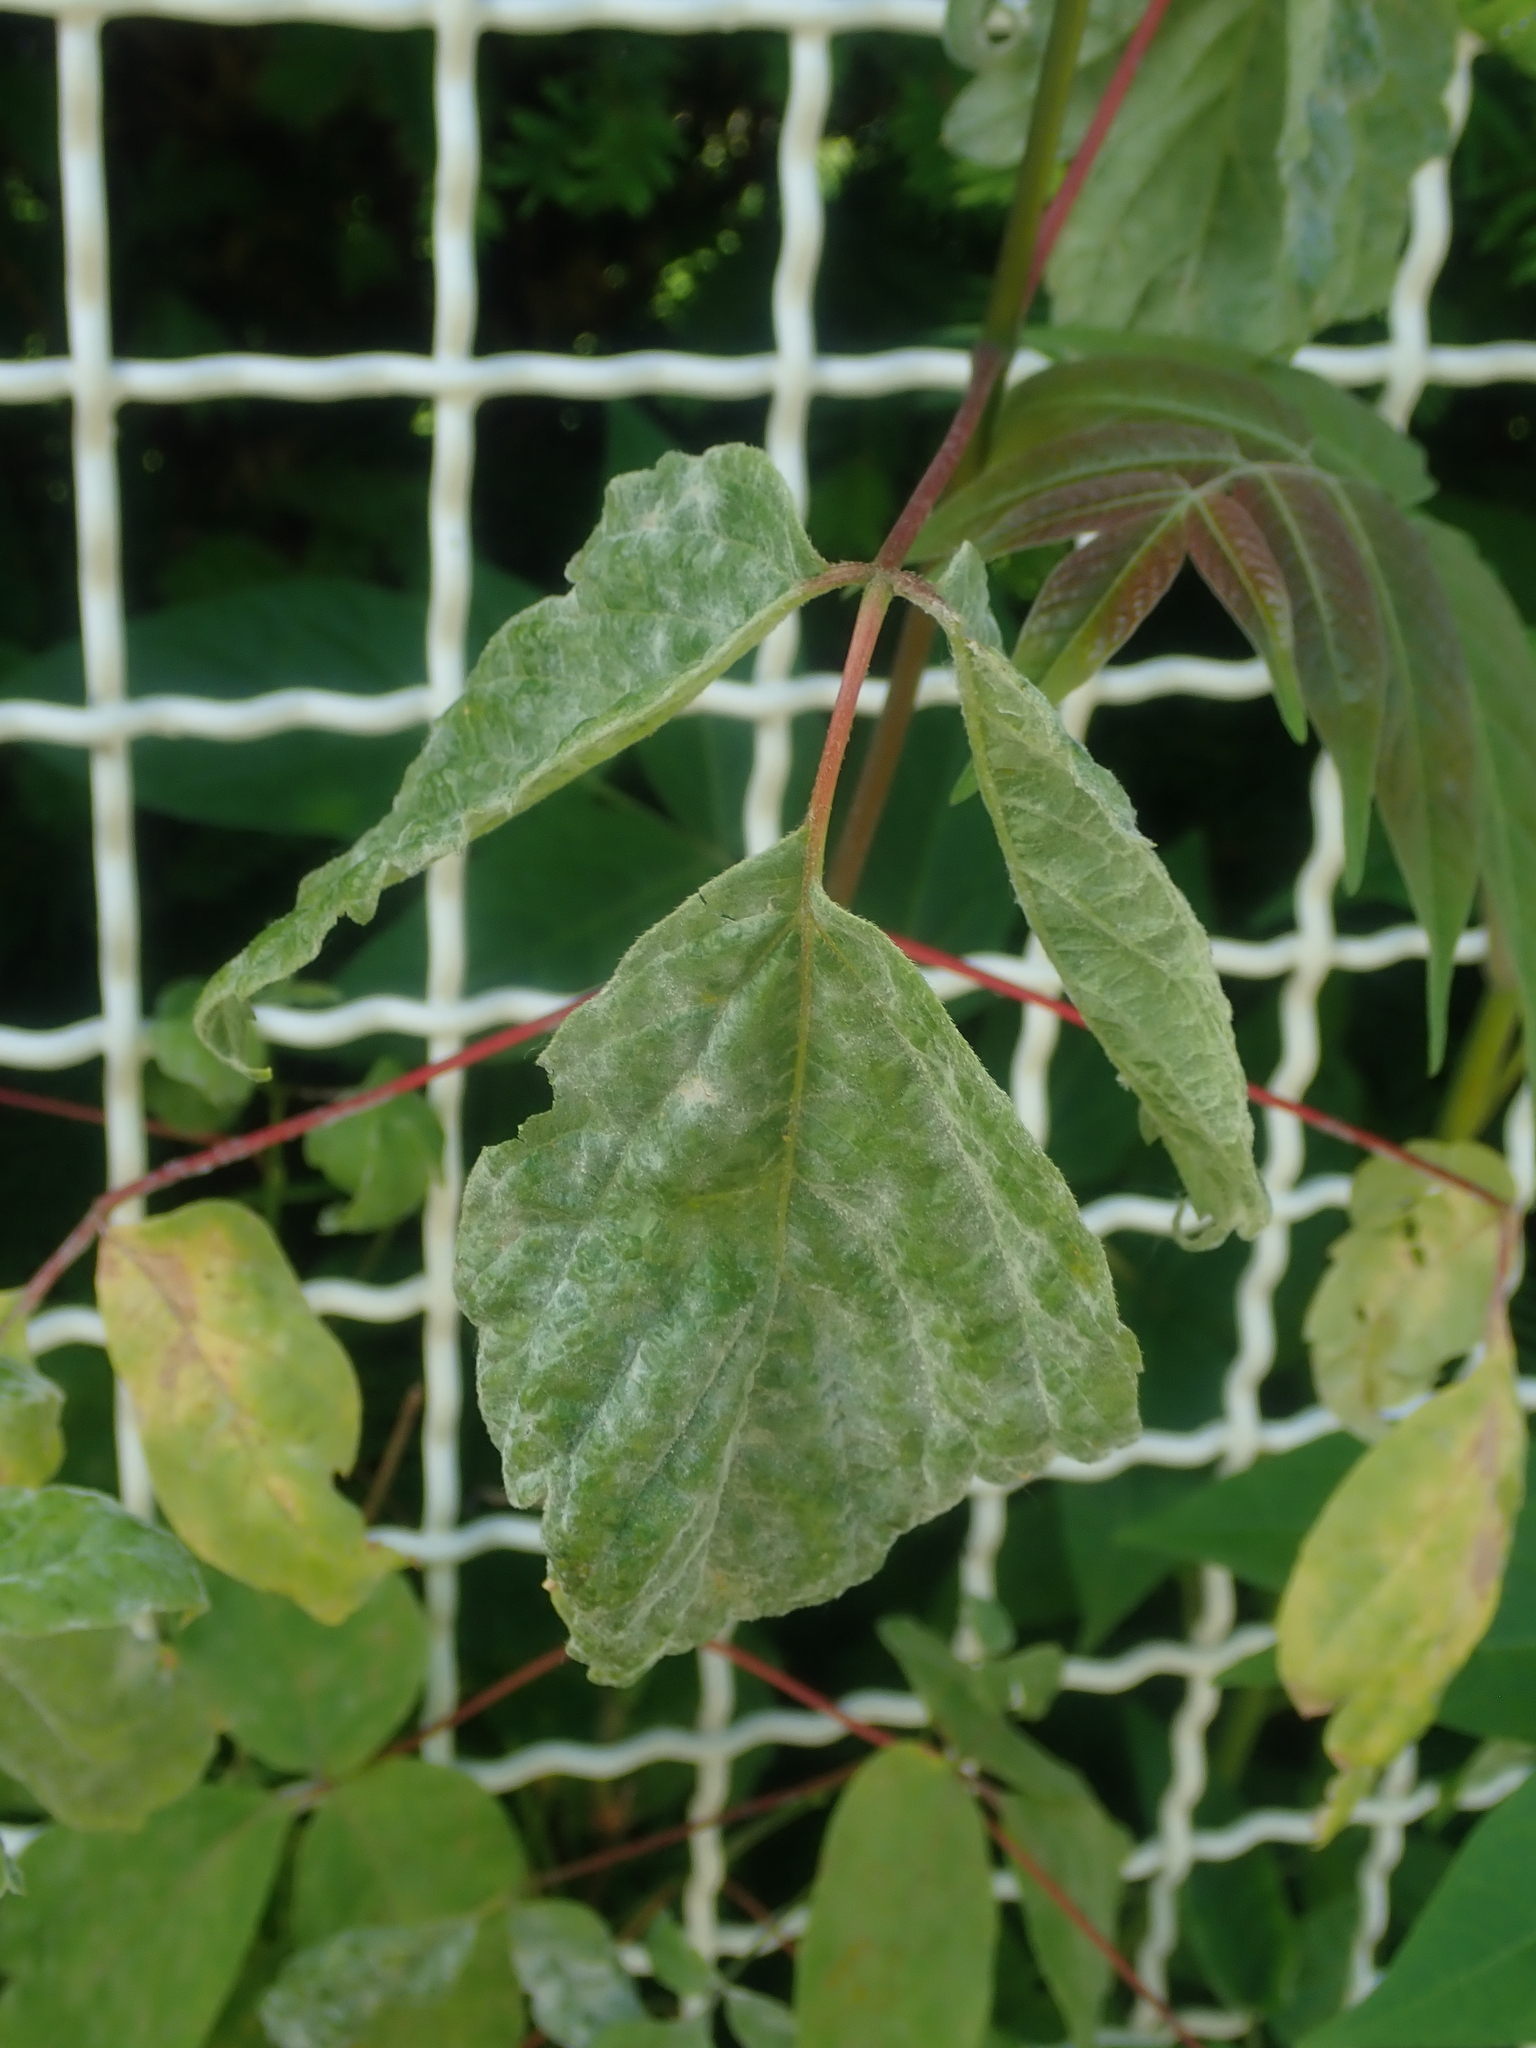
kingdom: Fungi
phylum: Ascomycota
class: Leotiomycetes
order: Helotiales
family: Erysiphaceae
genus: Sawadaea
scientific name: Sawadaea bicornis
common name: Maple mildew
